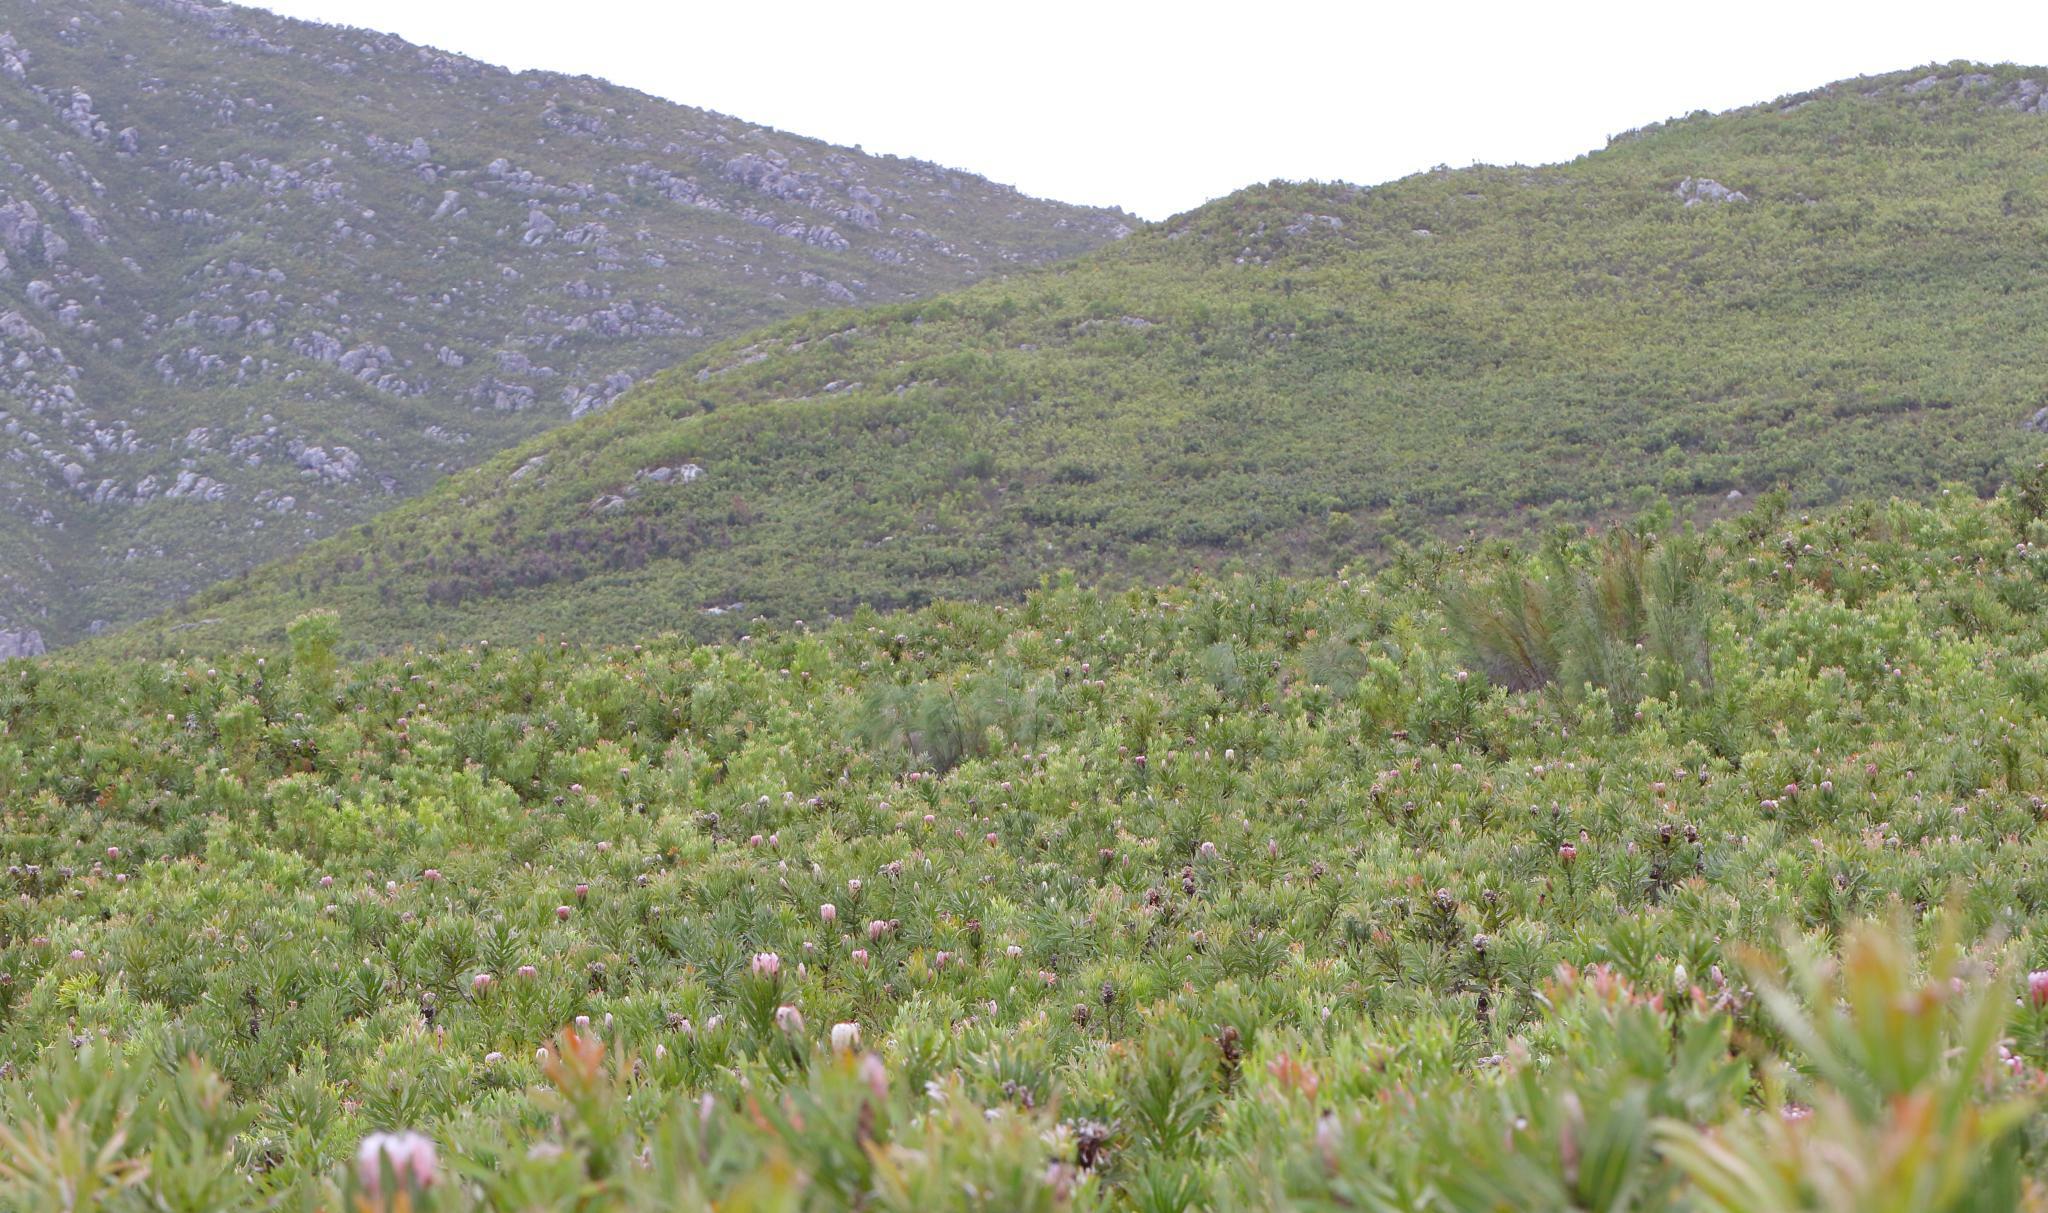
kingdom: Plantae
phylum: Tracheophyta
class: Magnoliopsida
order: Proteales
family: Proteaceae
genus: Protea
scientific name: Protea neriifolia
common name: Blue sugarbush
